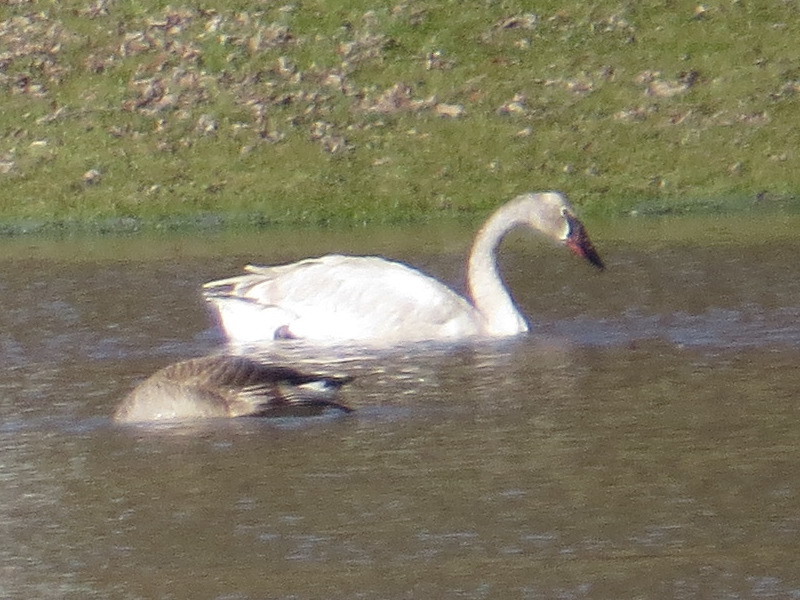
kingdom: Animalia
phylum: Chordata
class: Aves
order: Anseriformes
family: Anatidae
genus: Cygnus
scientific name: Cygnus buccinator
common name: Trumpeter swan
